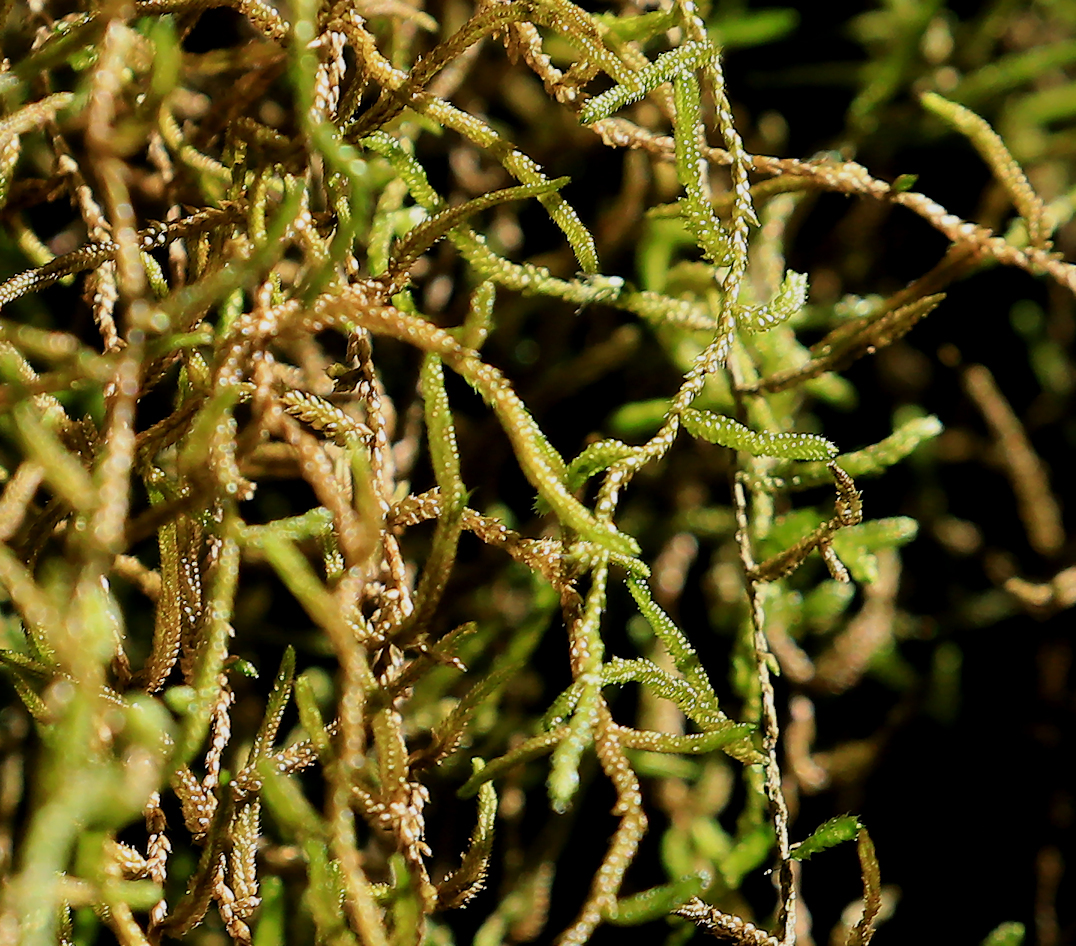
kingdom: Plantae
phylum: Tracheophyta
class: Magnoliopsida
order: Rosales
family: Cannabaceae
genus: Trema
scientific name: Trema orientale
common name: Indian charcoal tree
